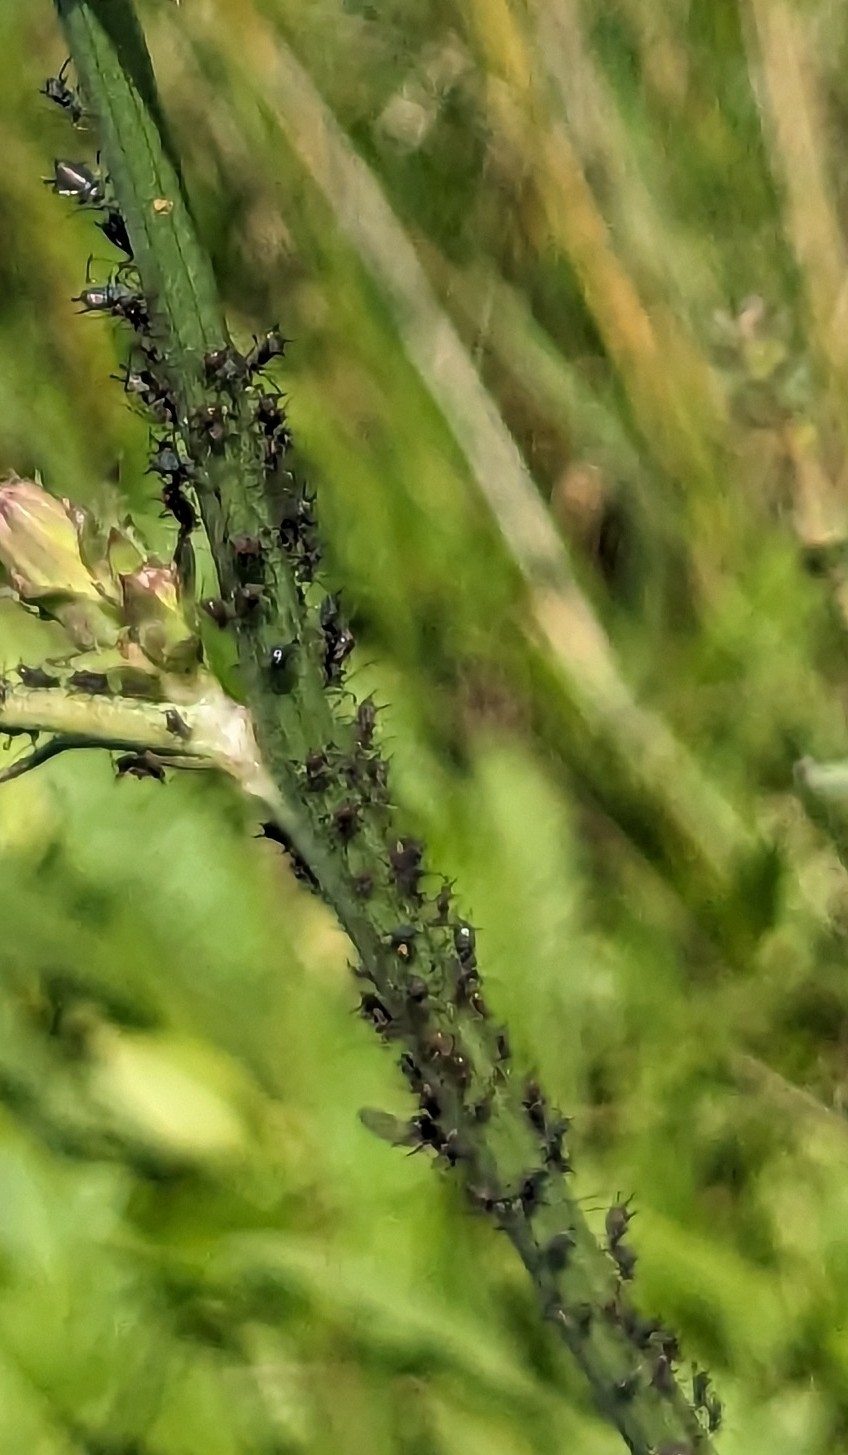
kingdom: Animalia
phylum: Arthropoda
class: Insecta
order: Hemiptera
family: Aphididae
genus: Uroleucon
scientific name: Uroleucon
